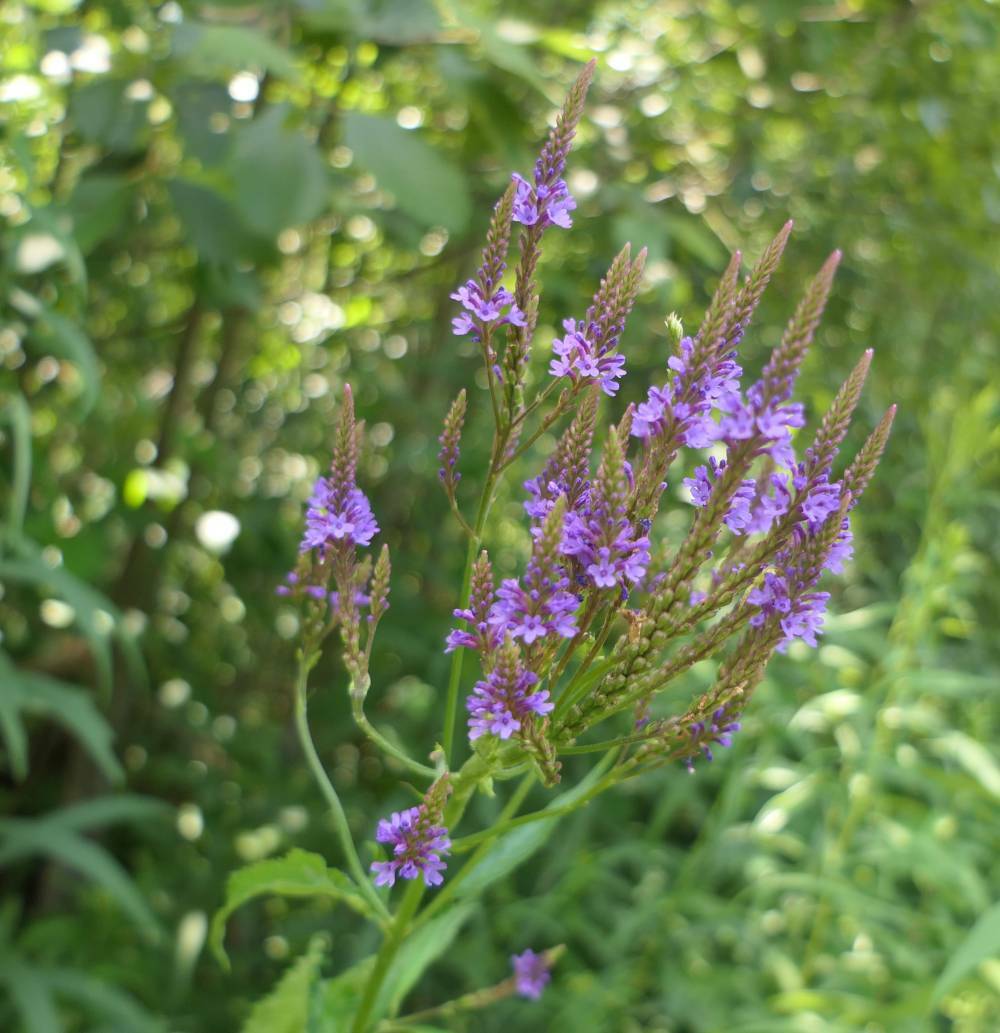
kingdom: Plantae
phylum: Tracheophyta
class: Magnoliopsida
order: Lamiales
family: Verbenaceae
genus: Verbena
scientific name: Verbena hastata
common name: American blue vervain
